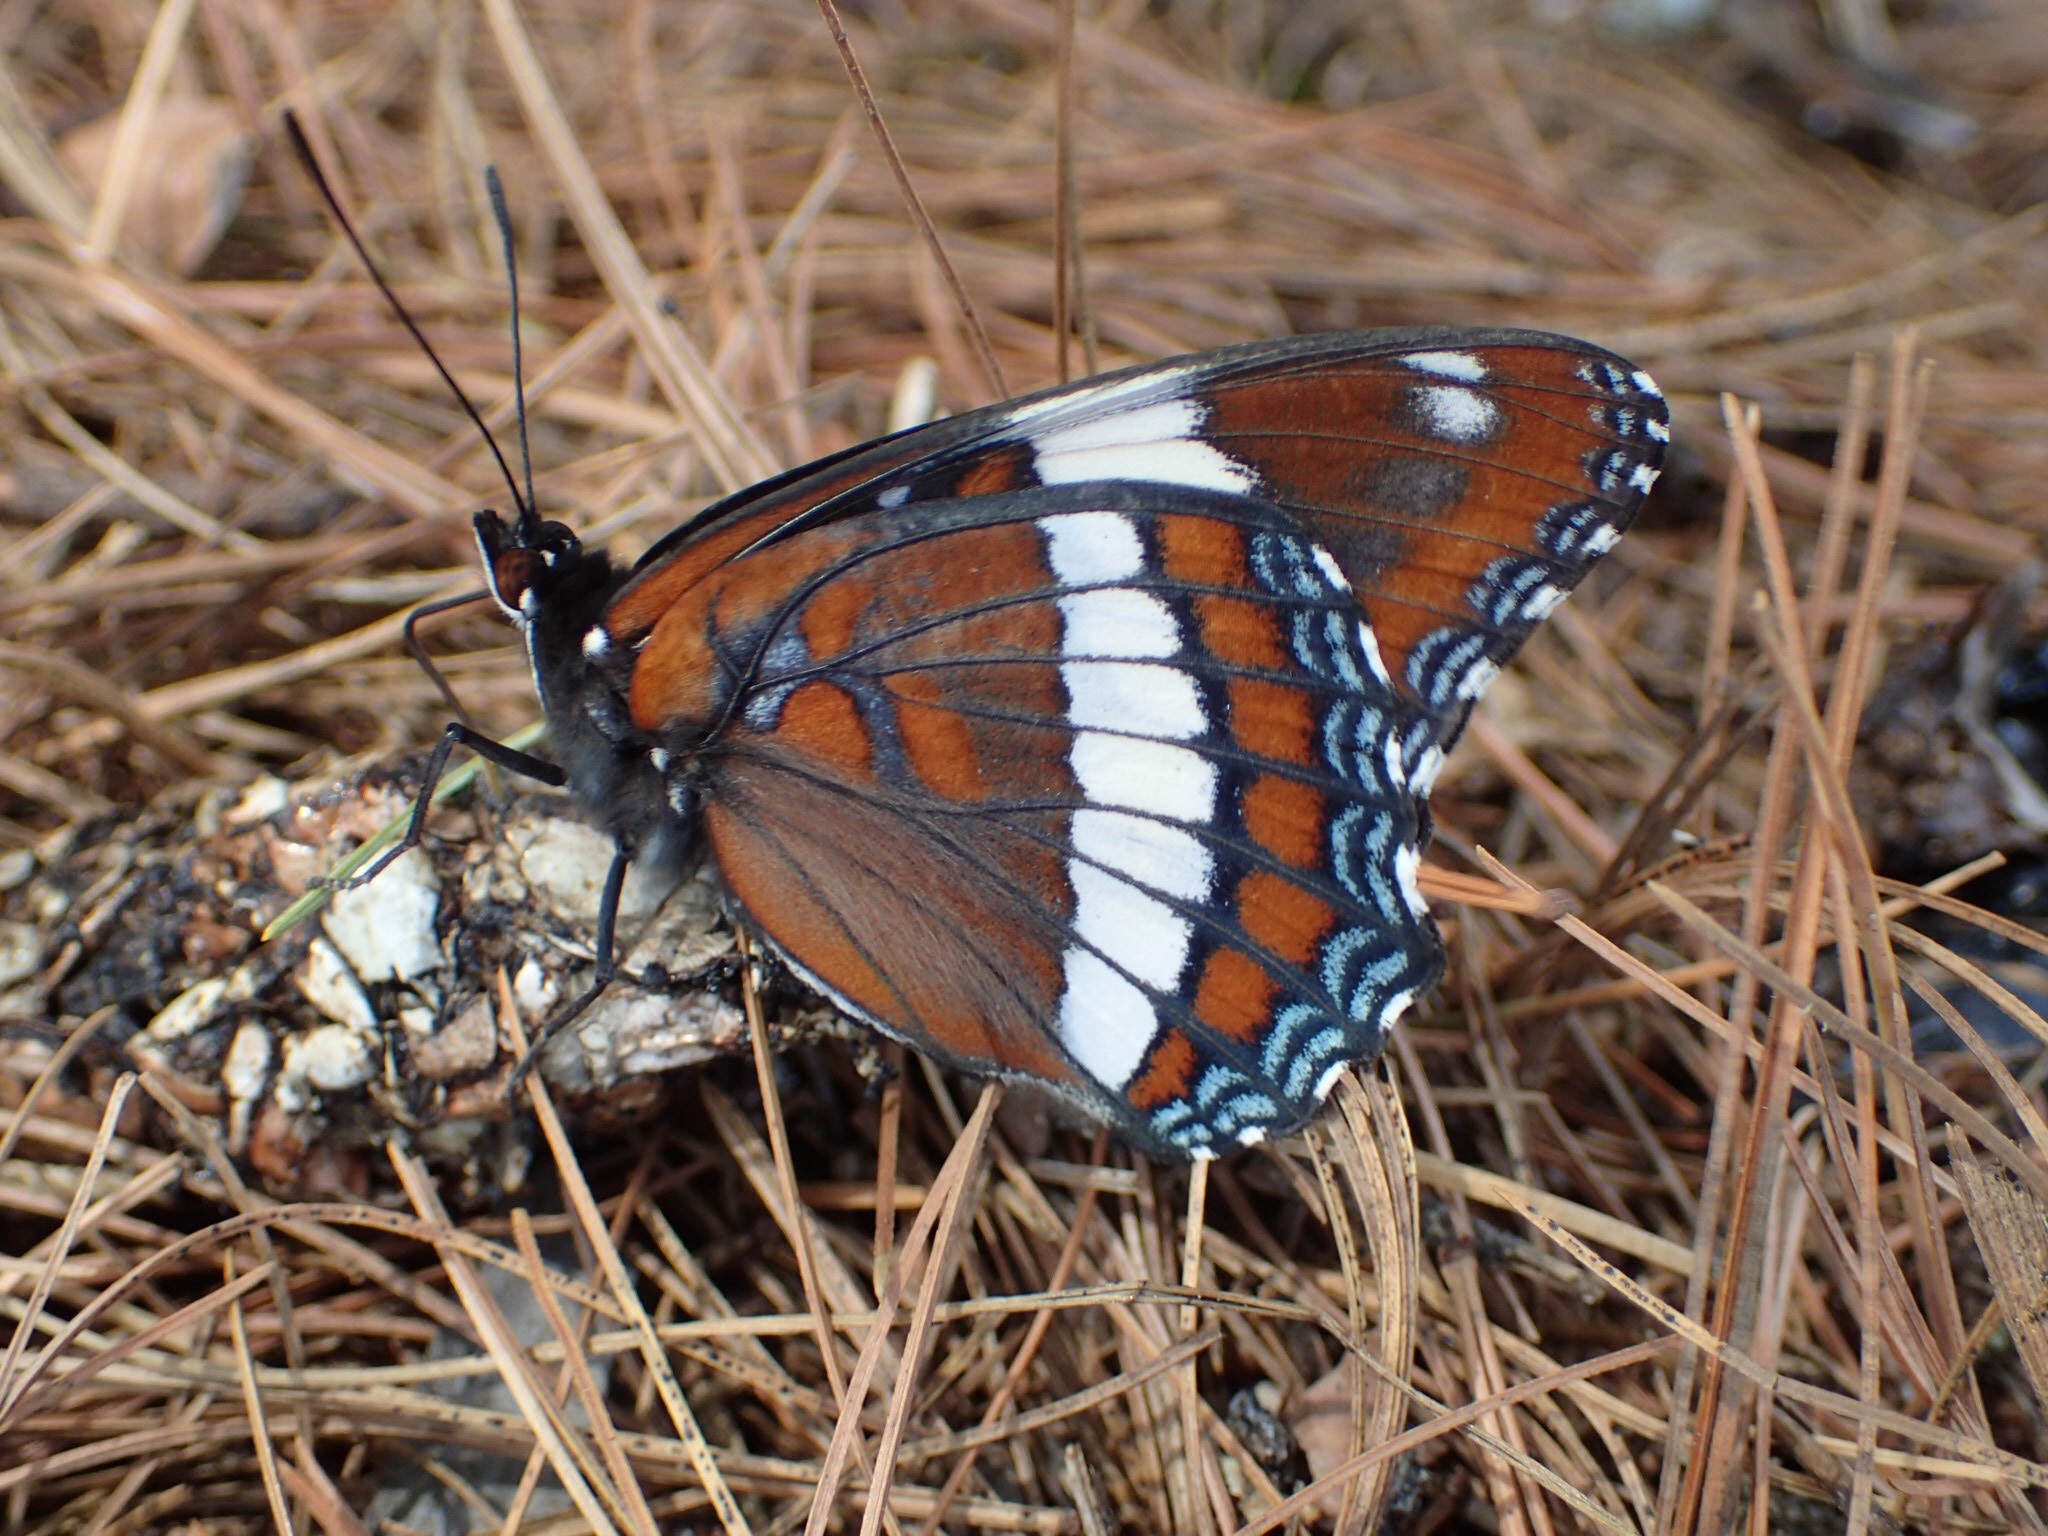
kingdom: Animalia
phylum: Arthropoda
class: Insecta
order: Lepidoptera
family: Nymphalidae
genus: Limenitis
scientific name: Limenitis arthemis
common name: Red-spotted admiral
